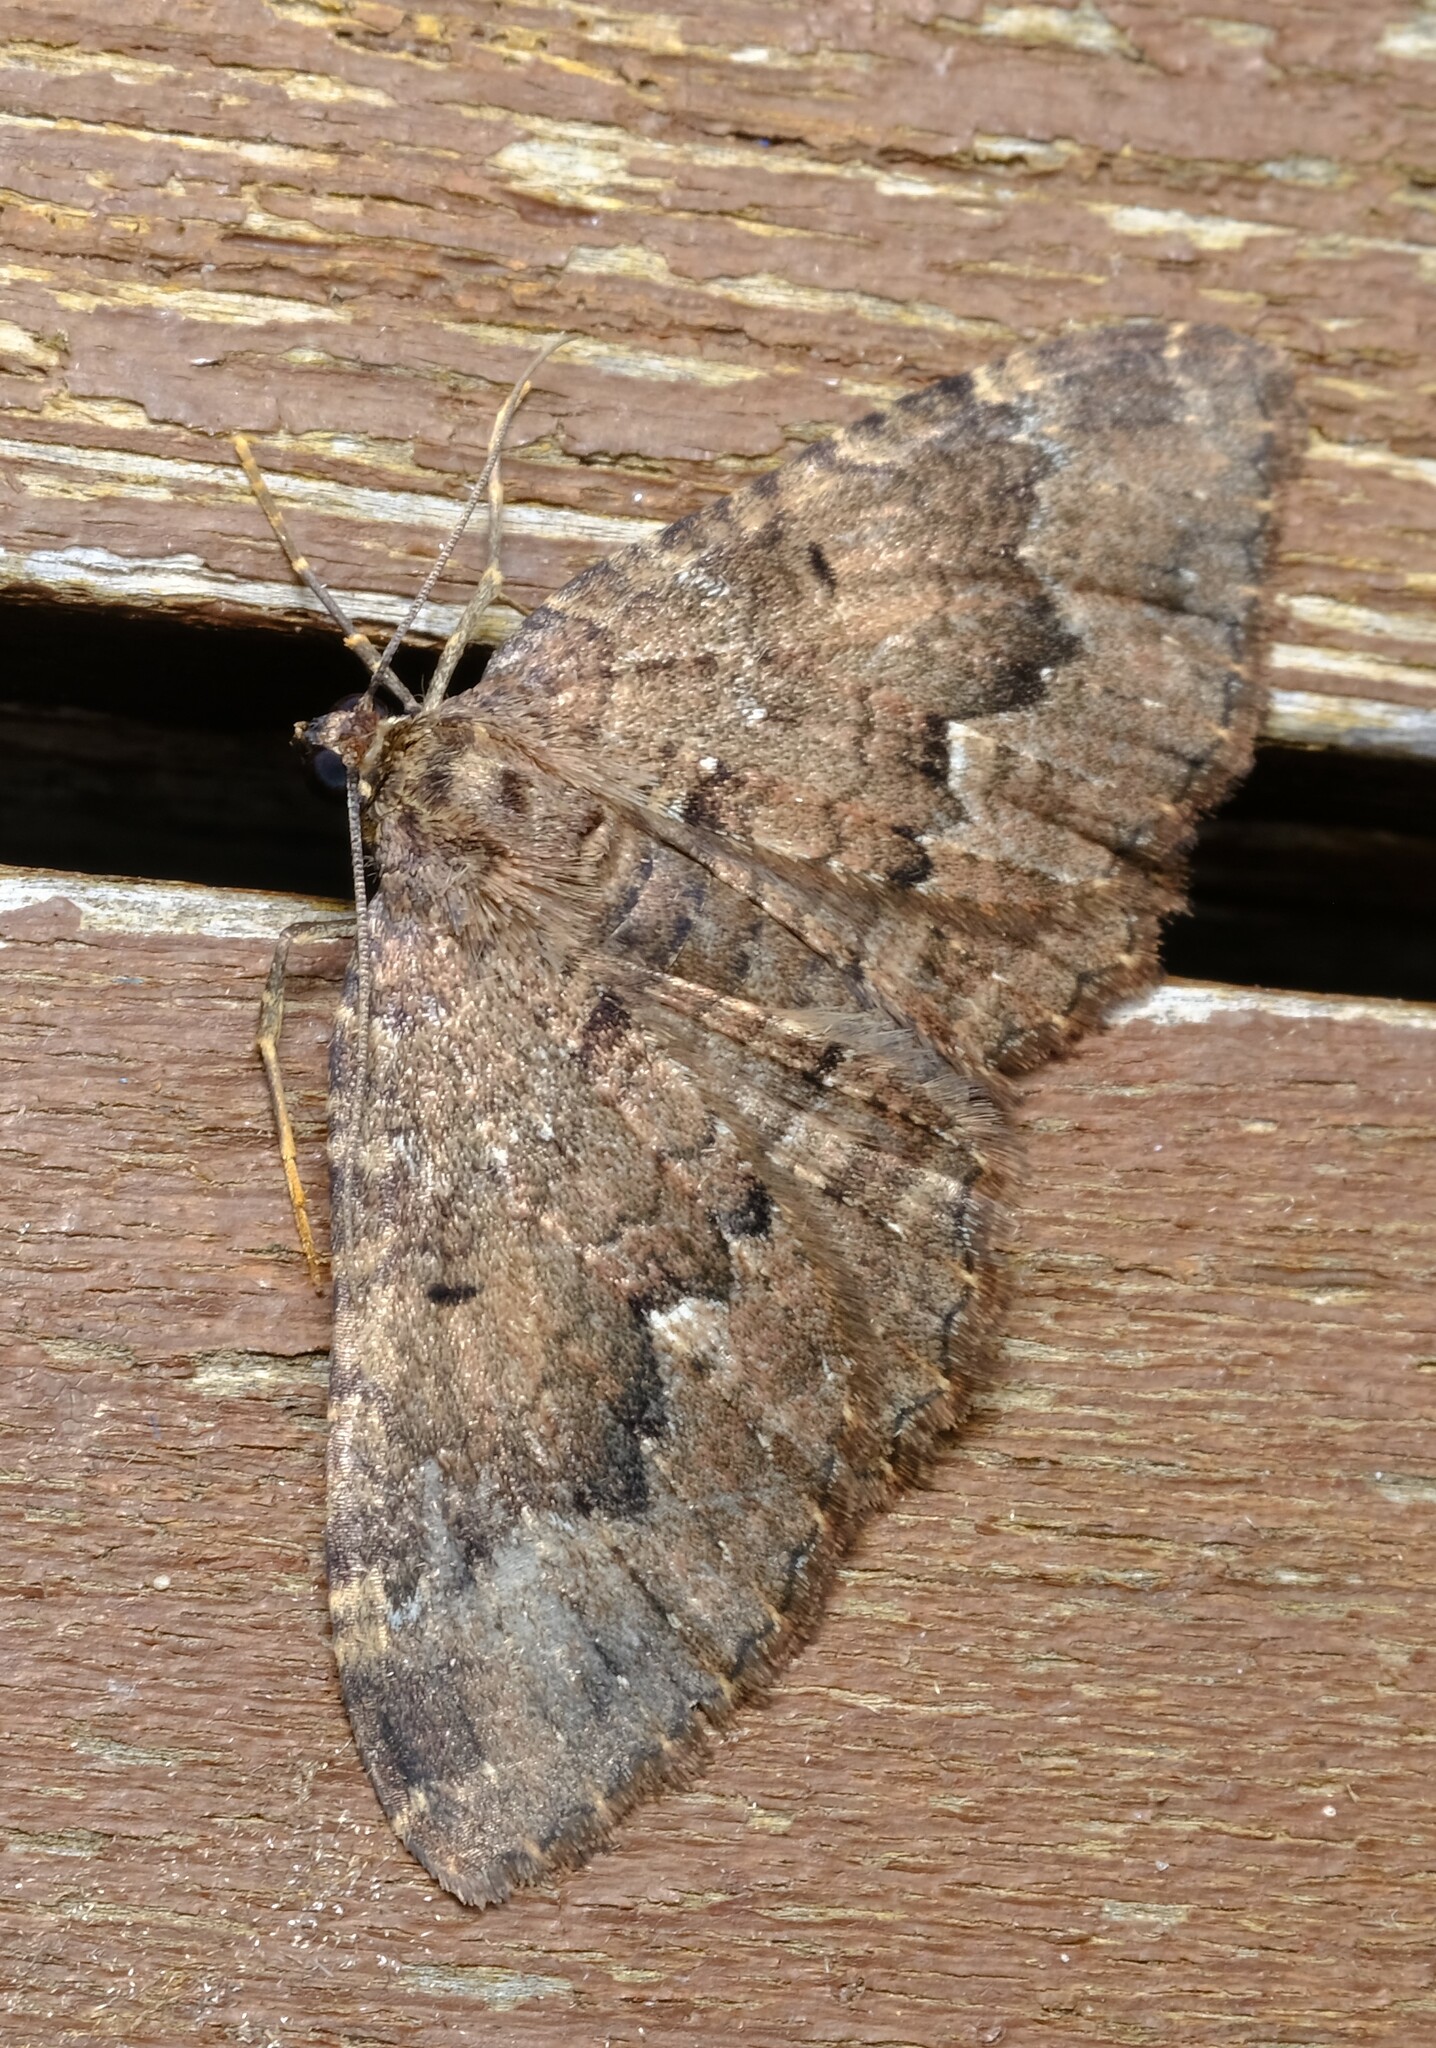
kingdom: Animalia
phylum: Arthropoda
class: Insecta
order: Lepidoptera
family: Geometridae
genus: Visiana
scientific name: Visiana brujata
